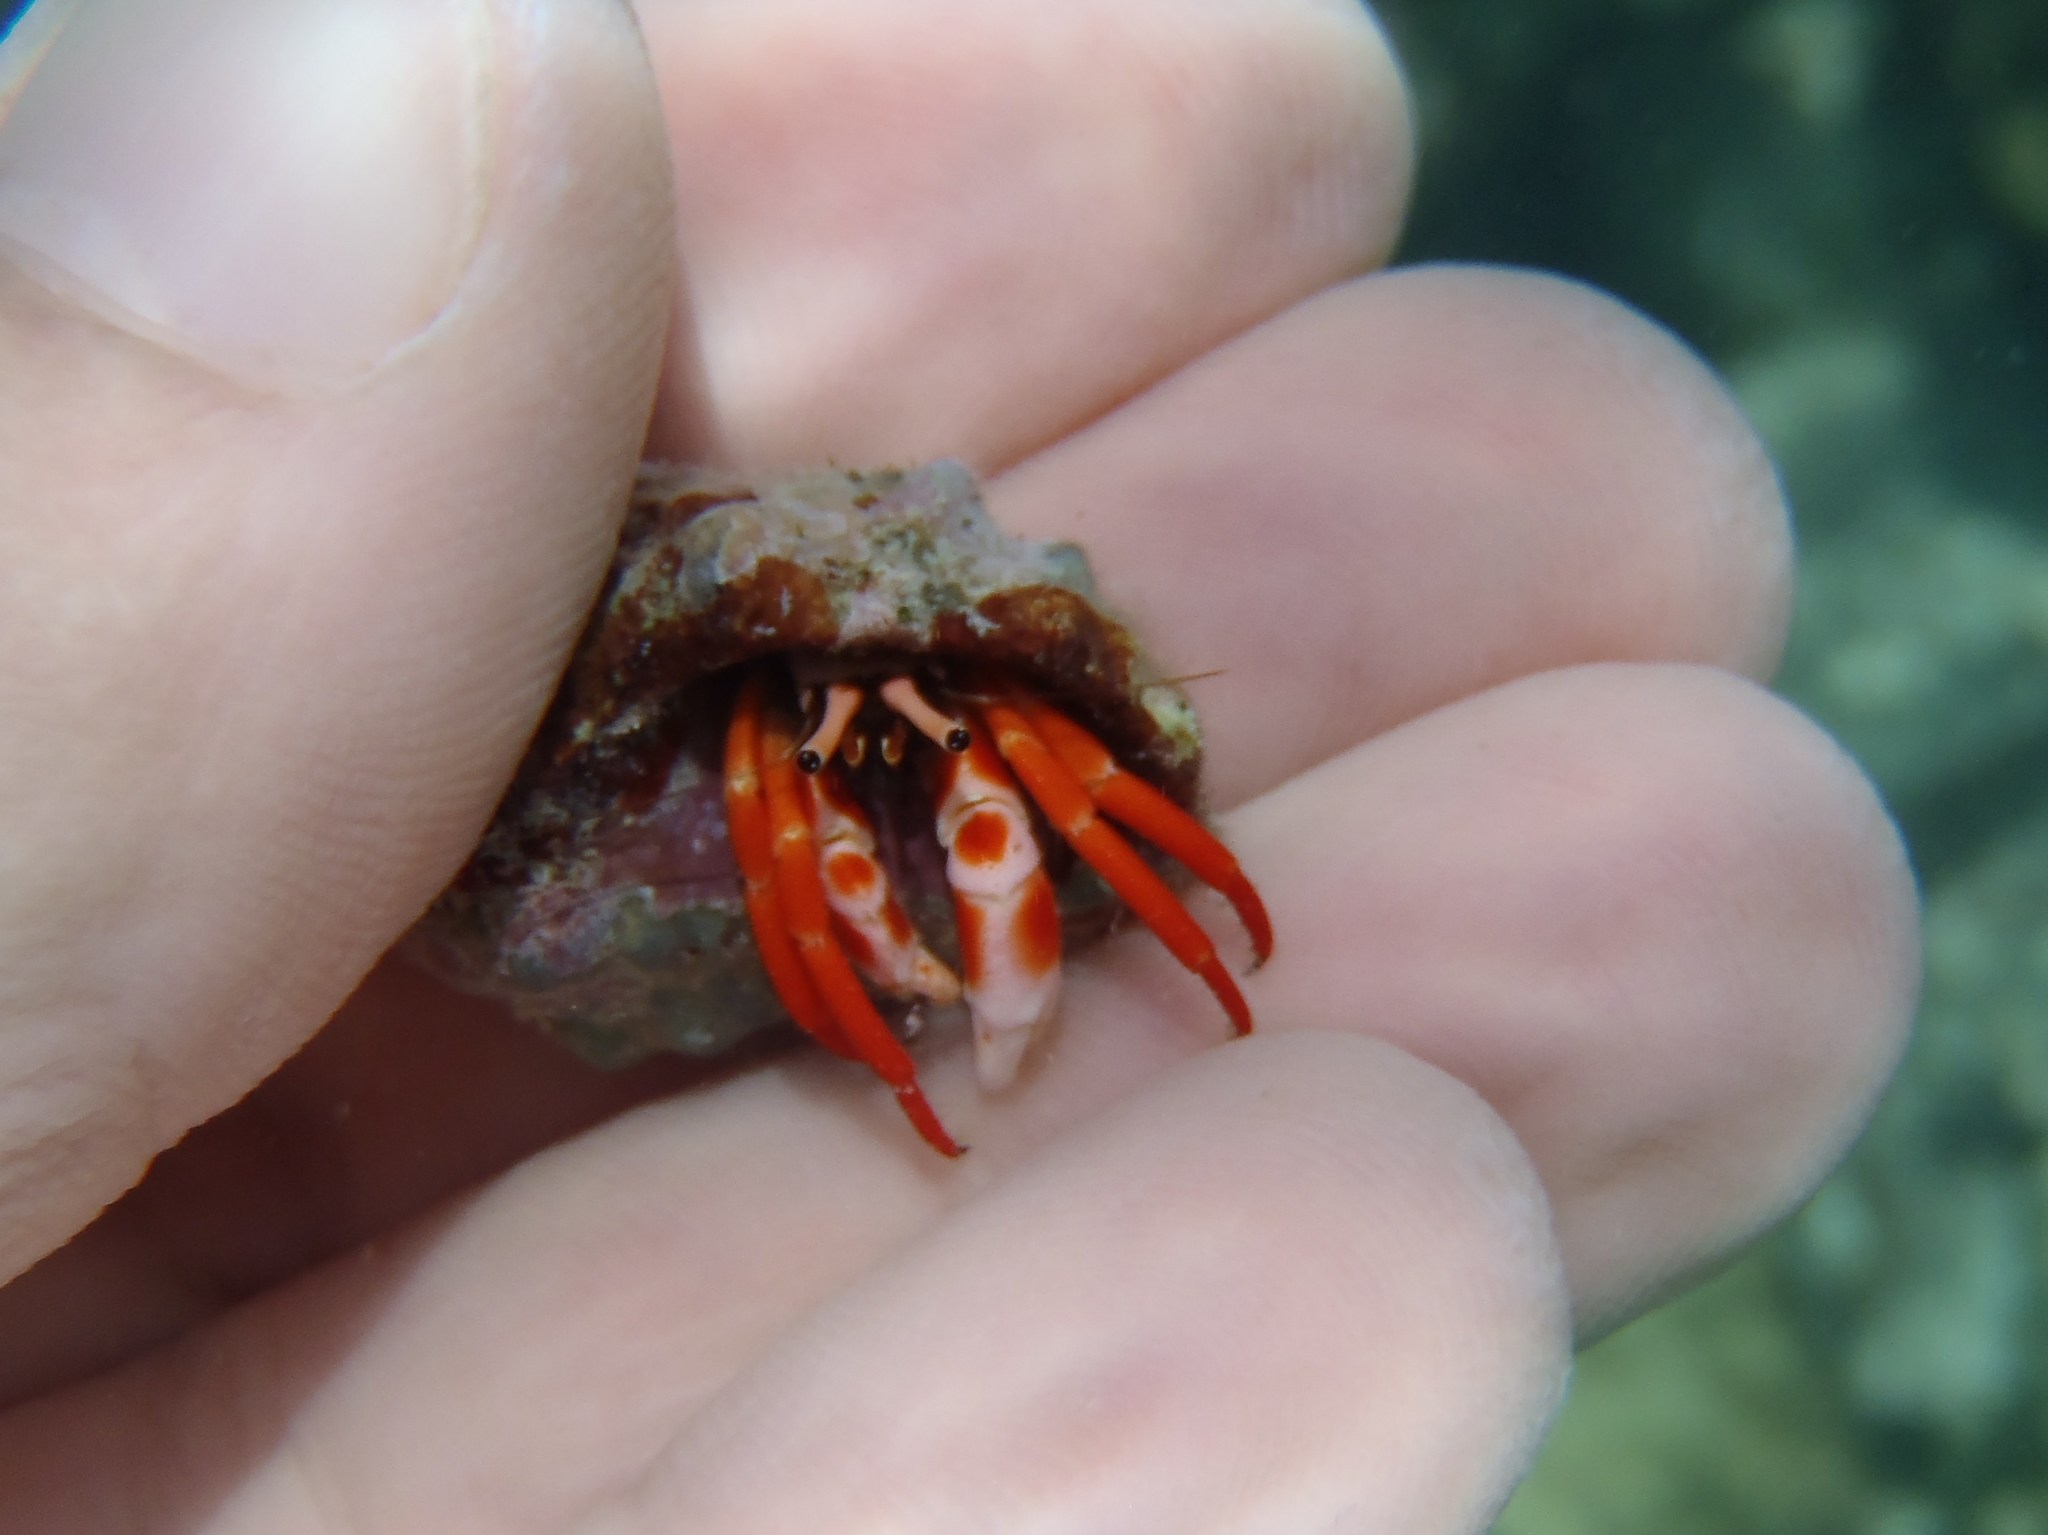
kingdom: Animalia
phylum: Arthropoda
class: Malacostraca
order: Decapoda
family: Diogenidae
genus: Calcinus
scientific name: Calcinus nitidus
